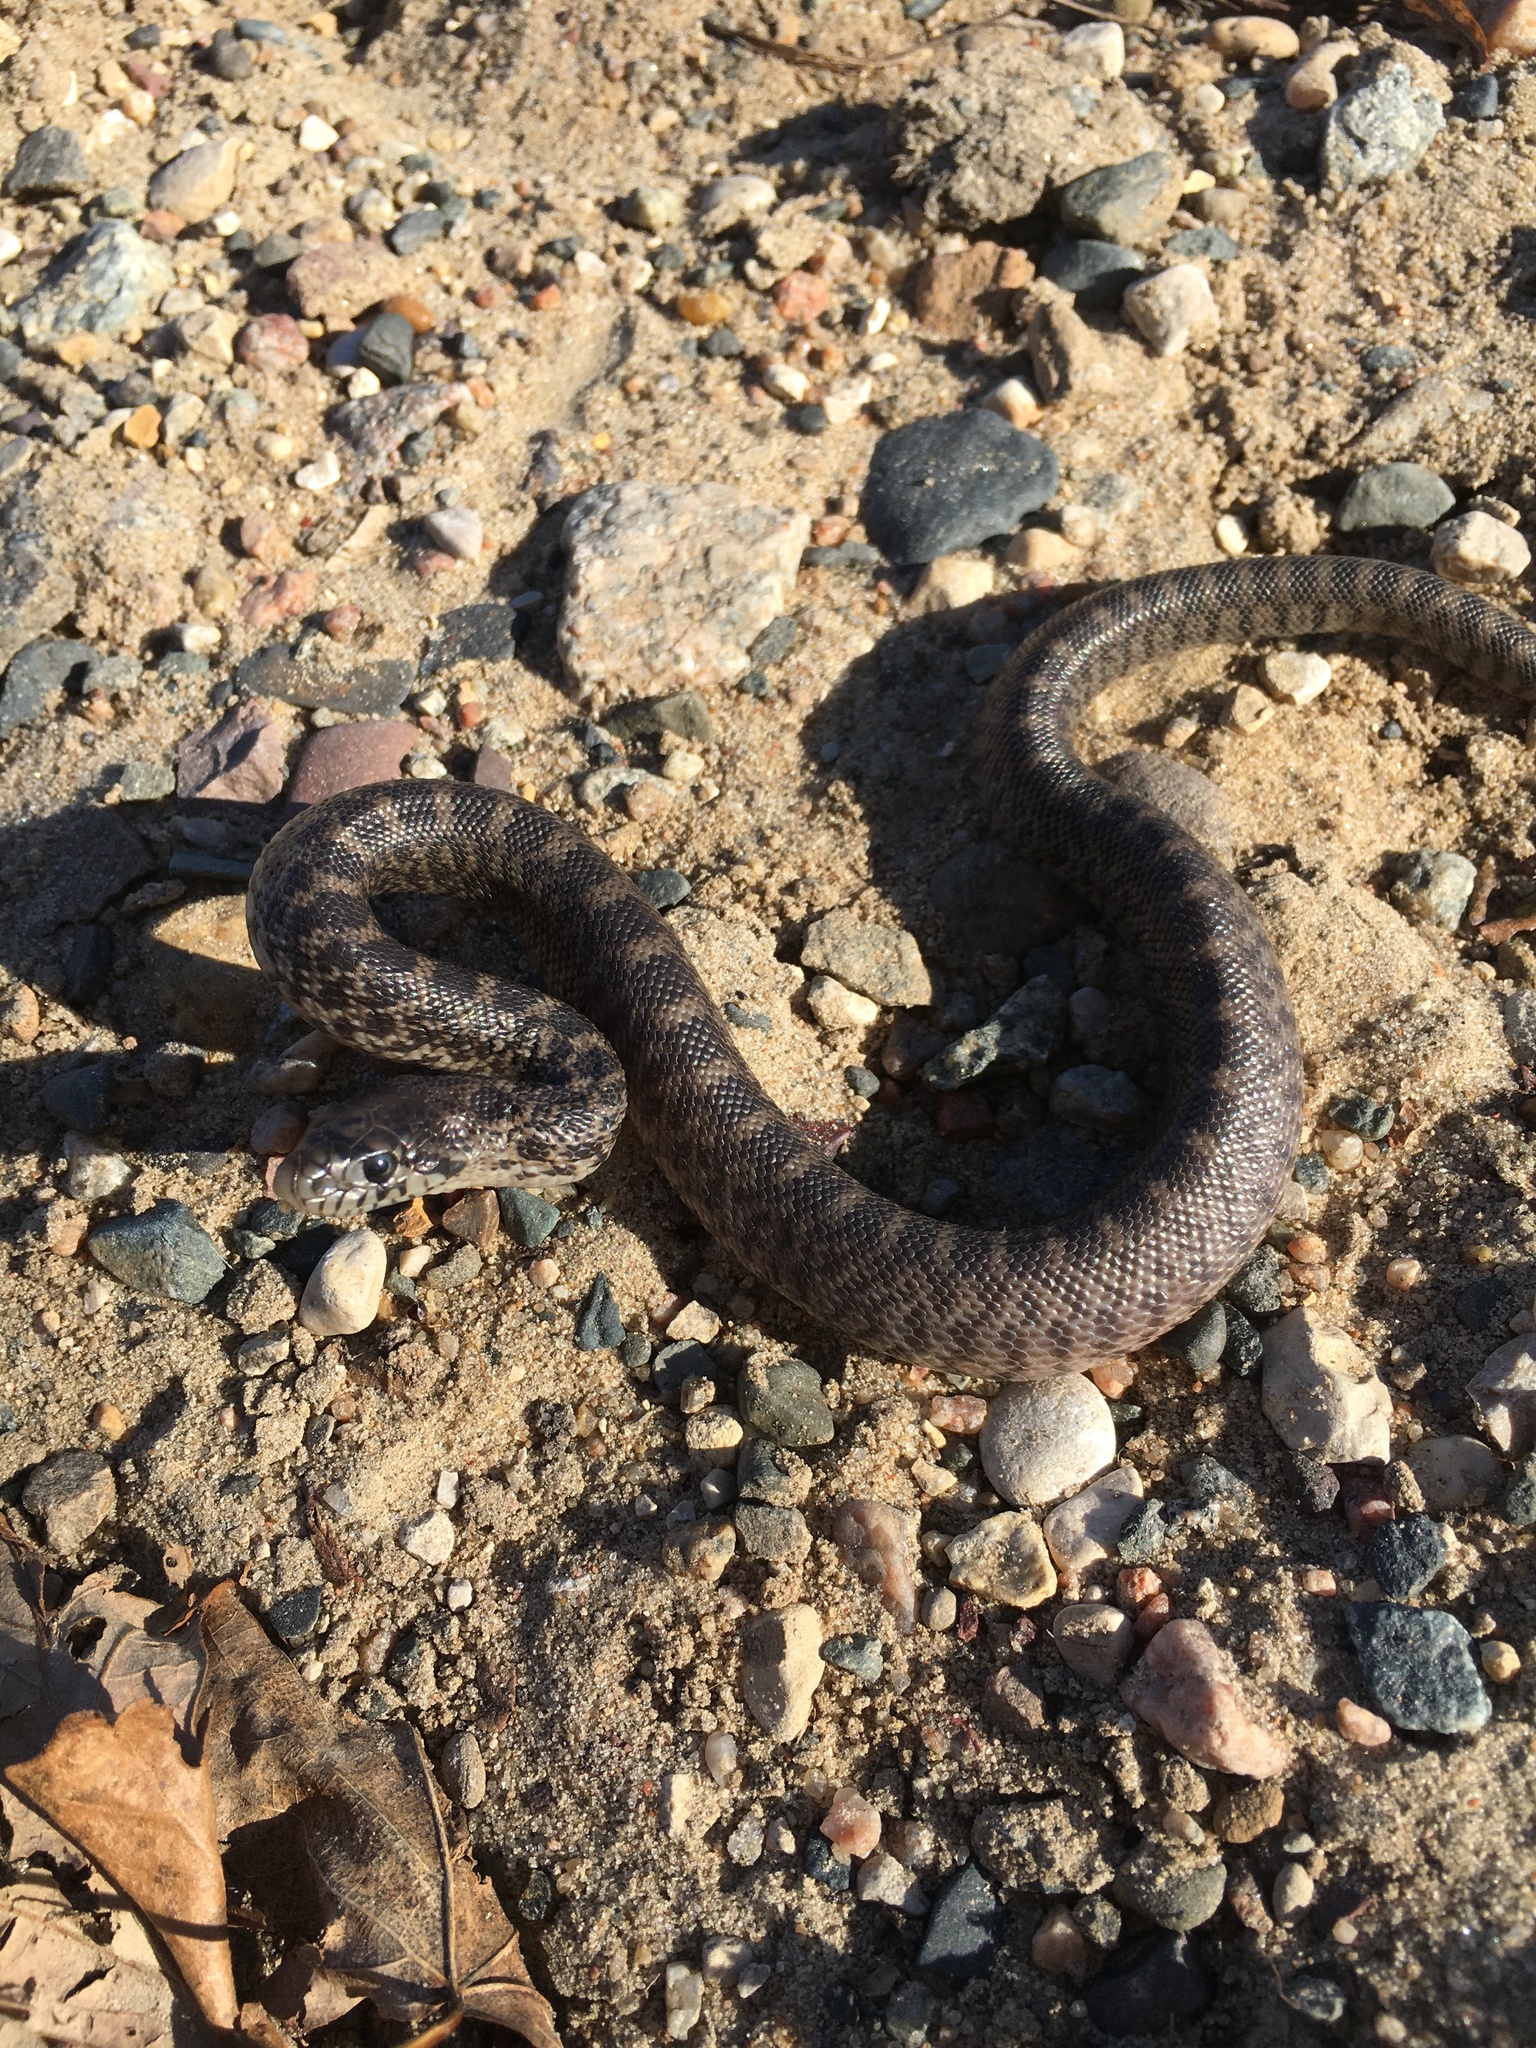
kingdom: Animalia
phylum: Chordata
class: Squamata
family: Colubridae
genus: Pituophis
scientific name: Pituophis catenifer
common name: Gopher snake
